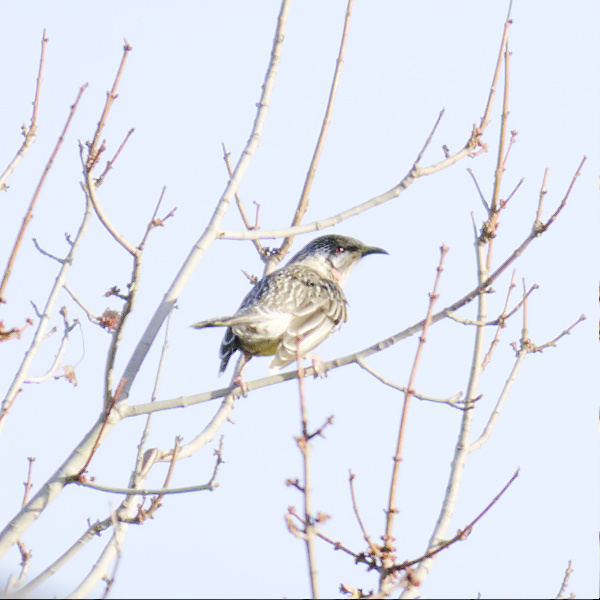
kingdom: Animalia
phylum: Chordata
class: Aves
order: Passeriformes
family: Meliphagidae
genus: Anthochaera
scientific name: Anthochaera carunculata
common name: Red wattlebird
